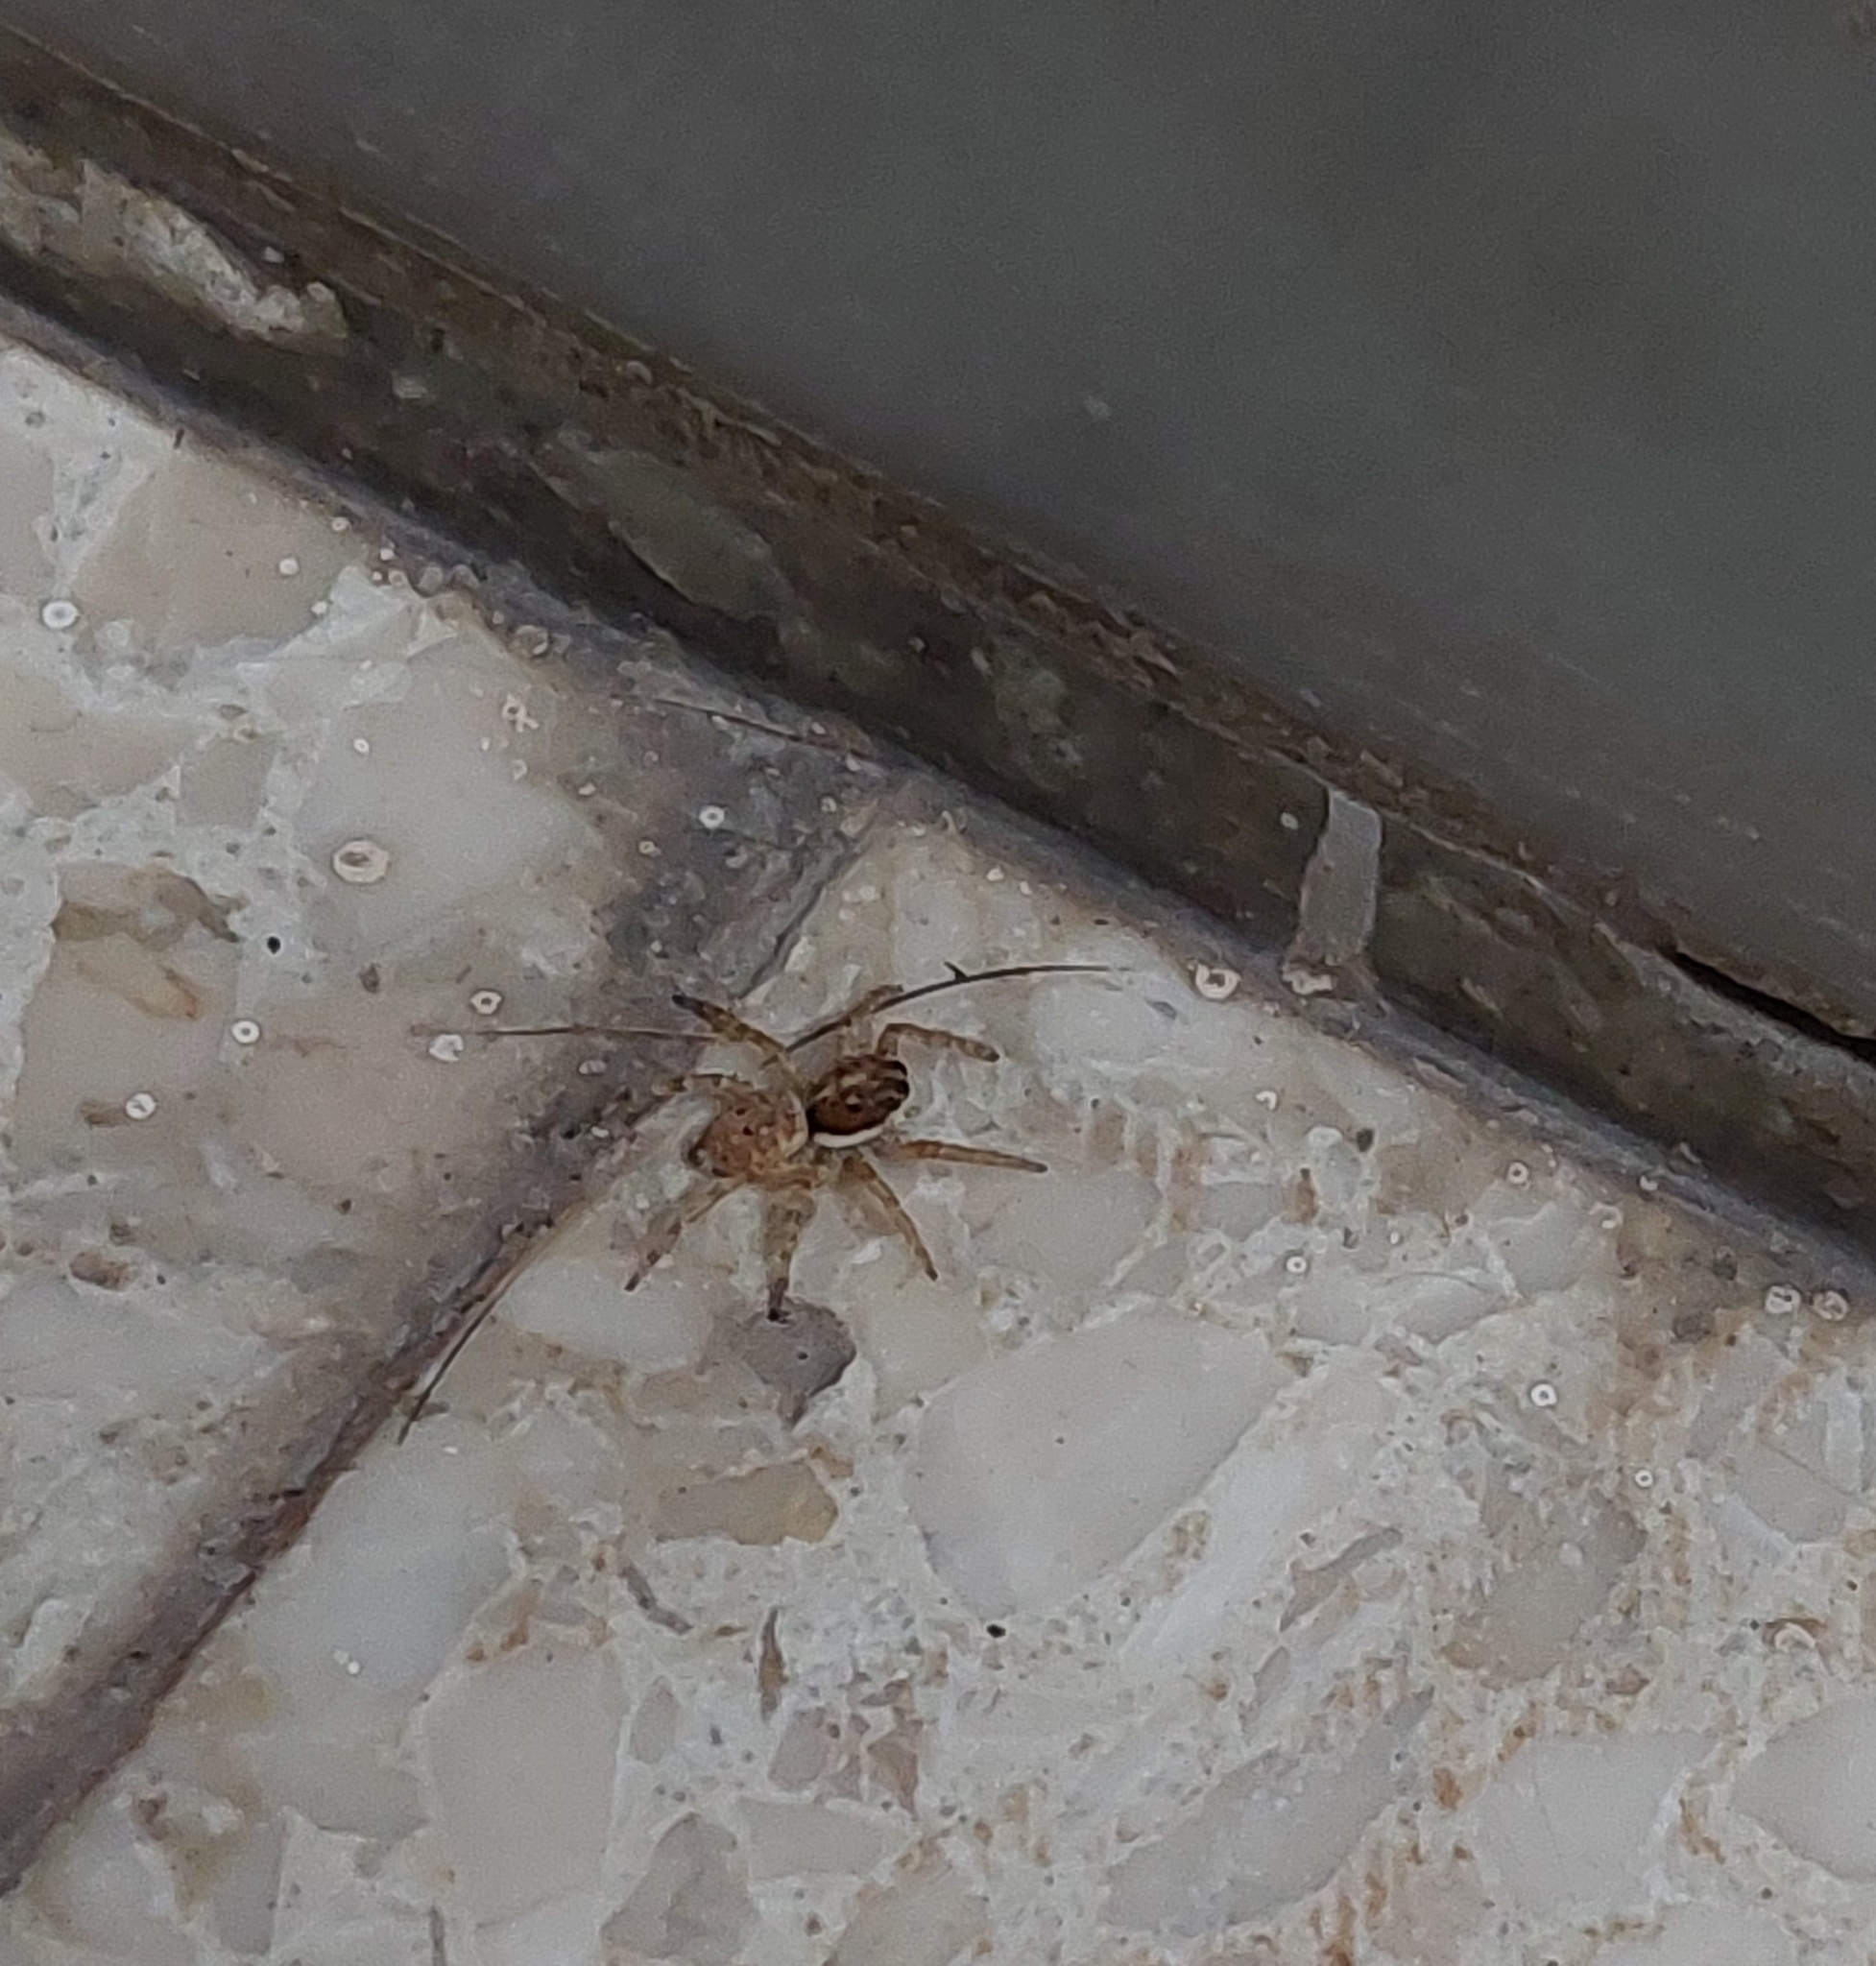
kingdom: Animalia
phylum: Arthropoda
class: Arachnida
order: Araneae
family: Salticidae
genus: Menemerus
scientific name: Menemerus semilimbatus
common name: Jumping spider
